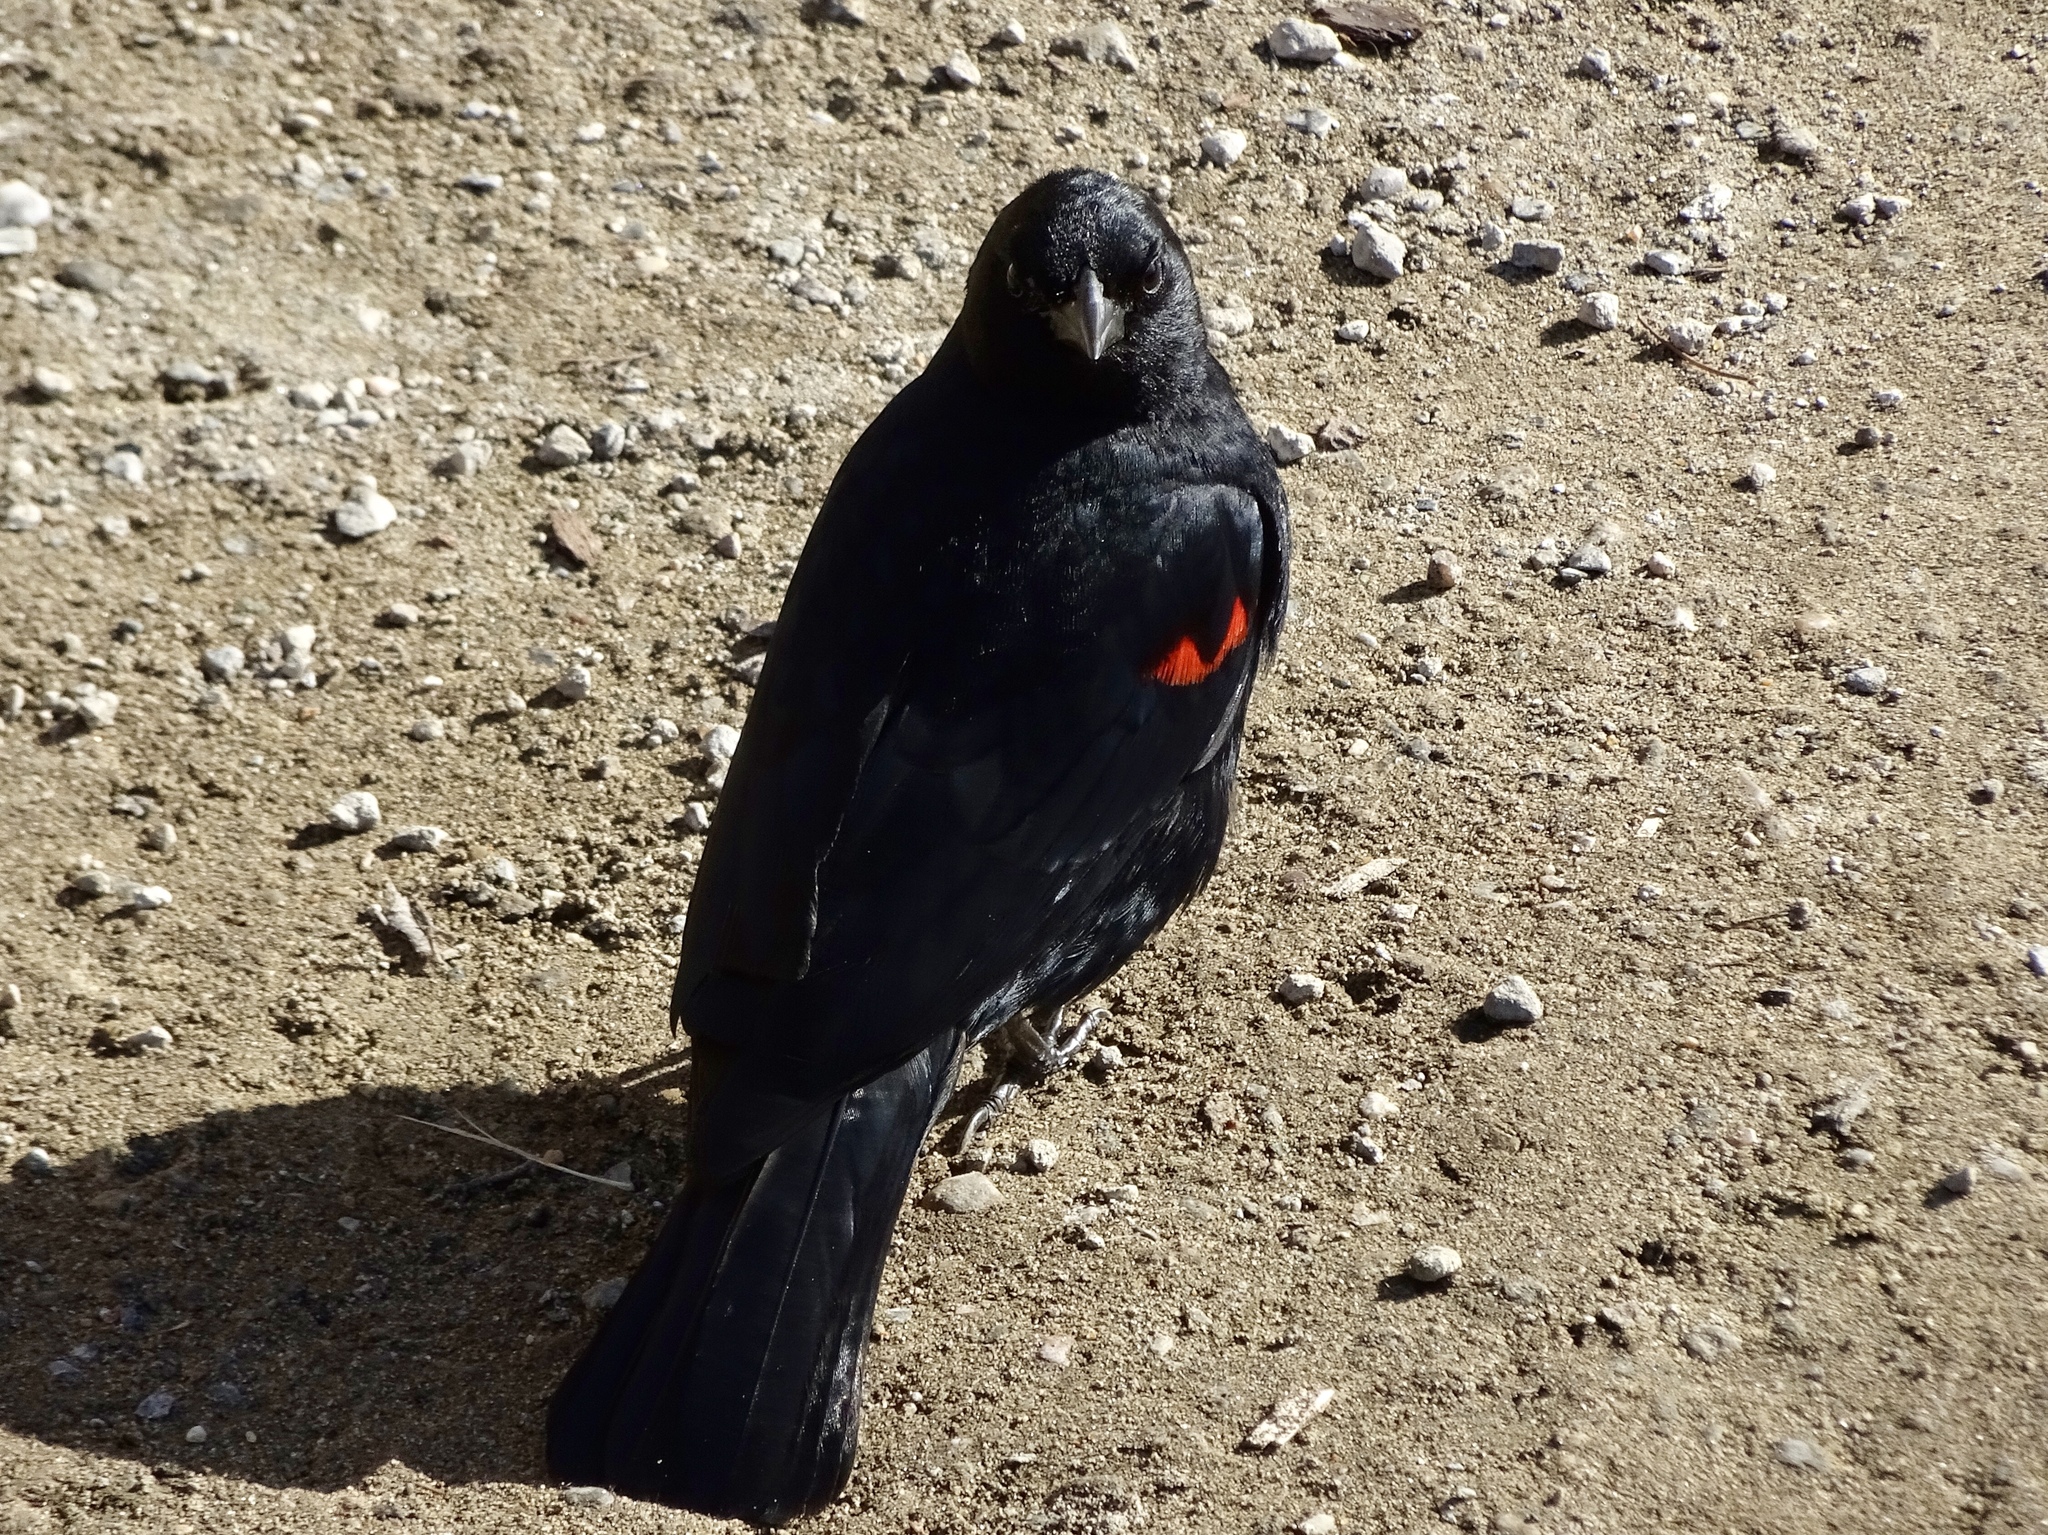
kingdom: Animalia
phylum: Chordata
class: Aves
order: Passeriformes
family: Icteridae
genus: Agelaius
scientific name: Agelaius phoeniceus
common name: Red-winged blackbird
